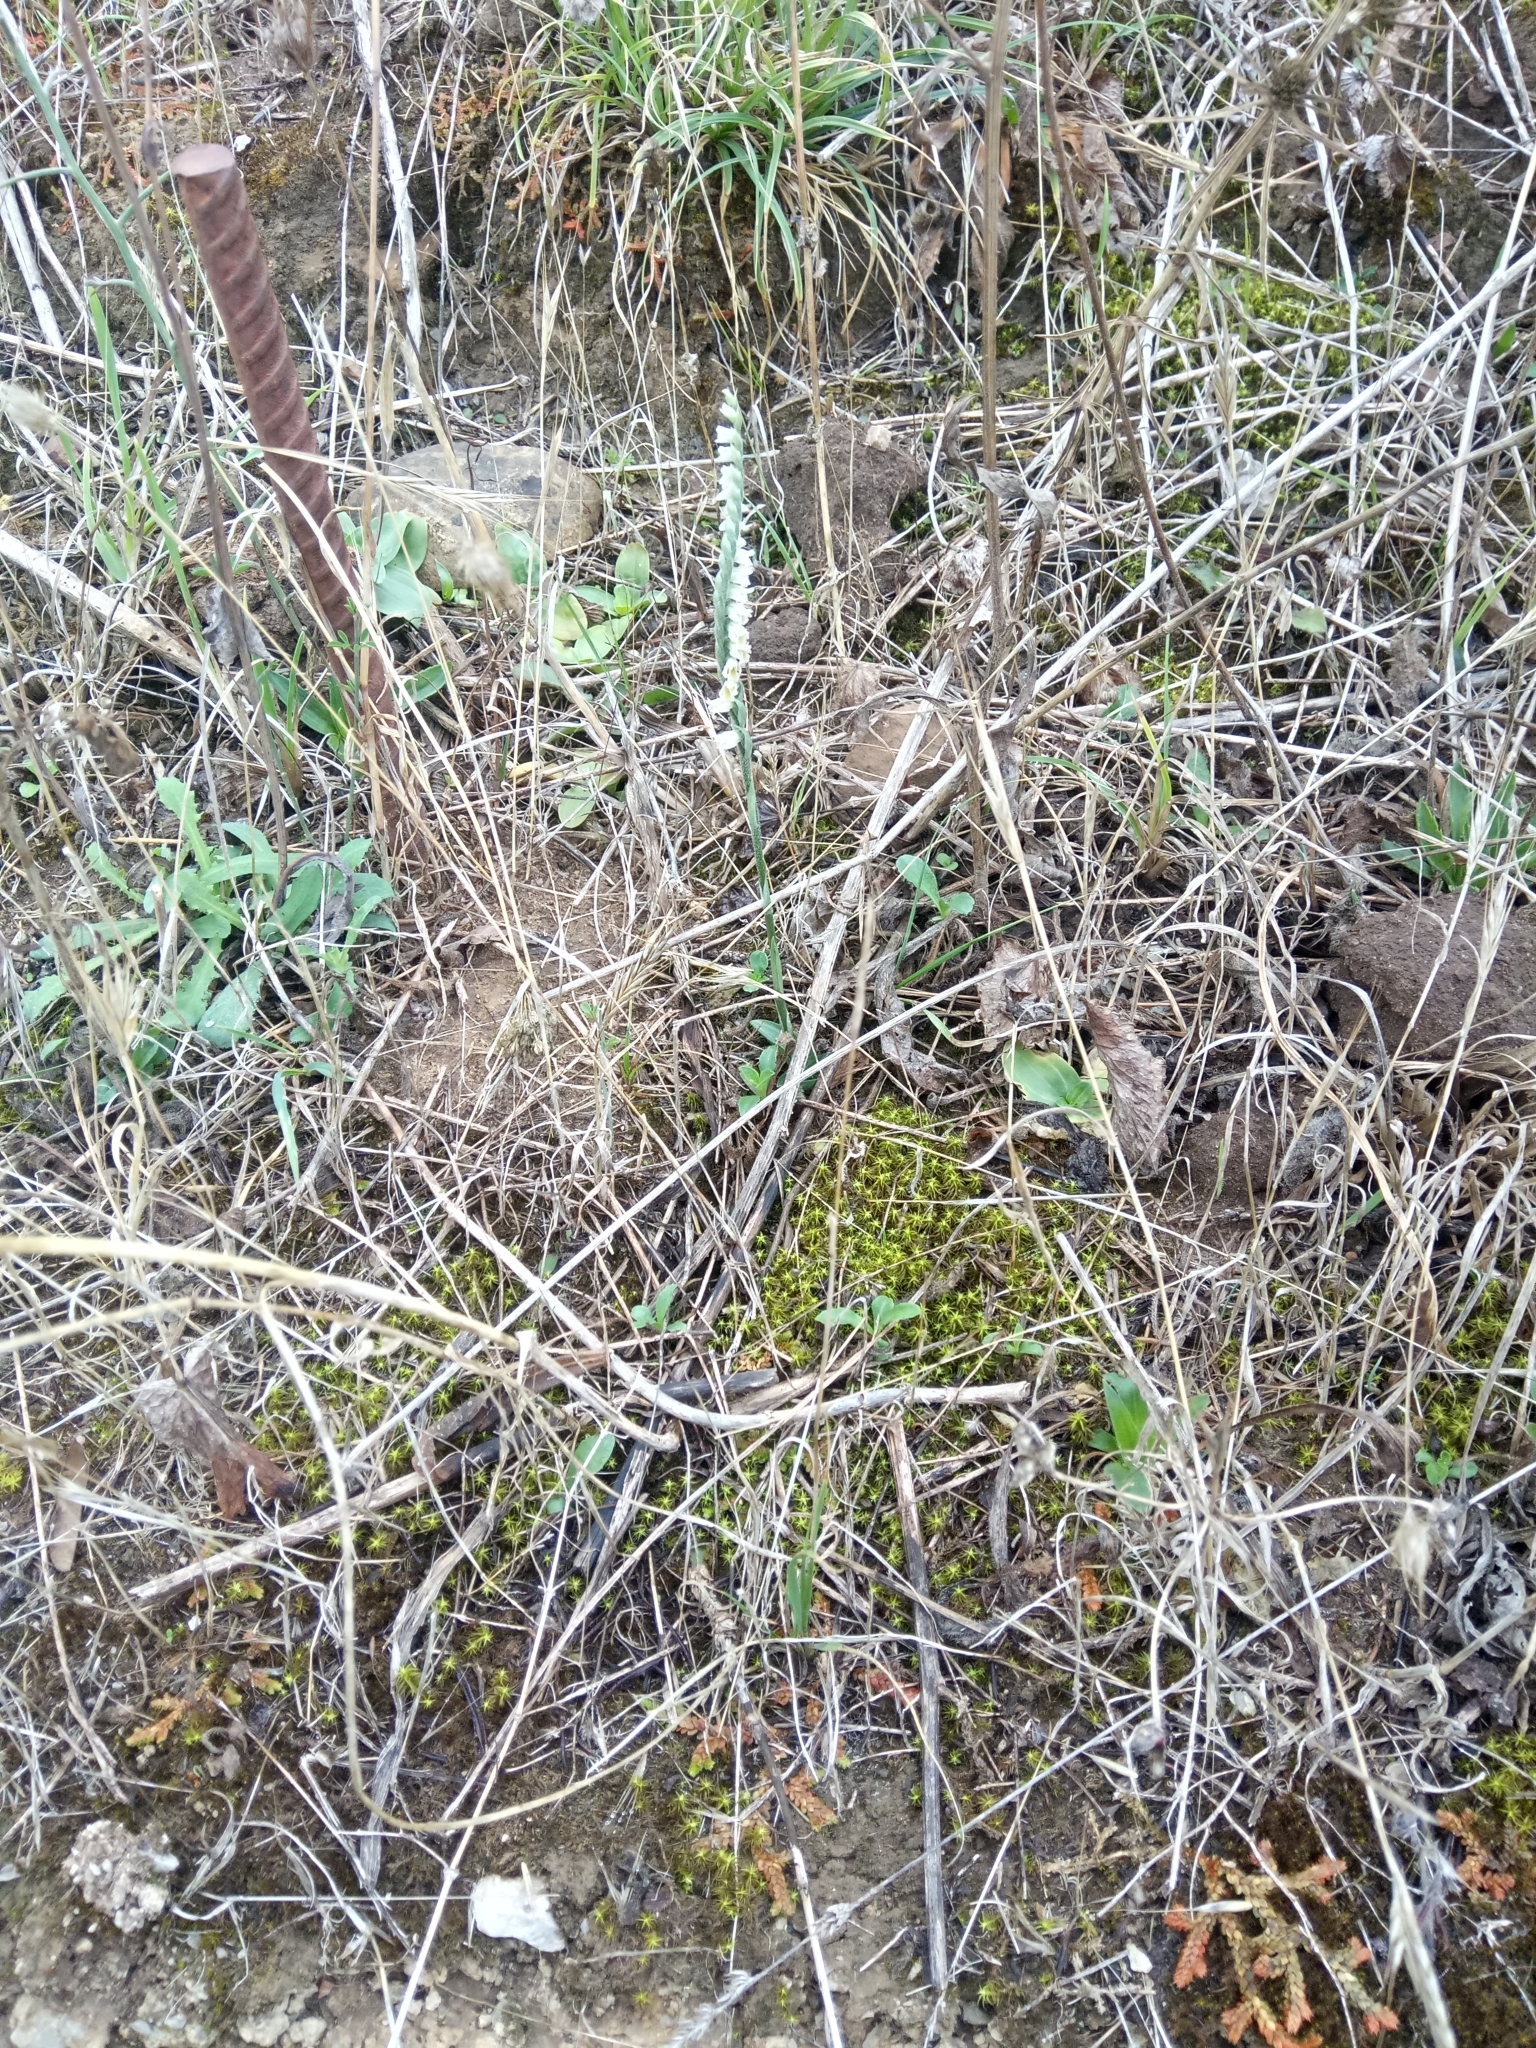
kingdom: Plantae
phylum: Tracheophyta
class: Liliopsida
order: Asparagales
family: Orchidaceae
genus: Spiranthes
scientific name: Spiranthes spiralis
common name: Autumn lady's-tresses
